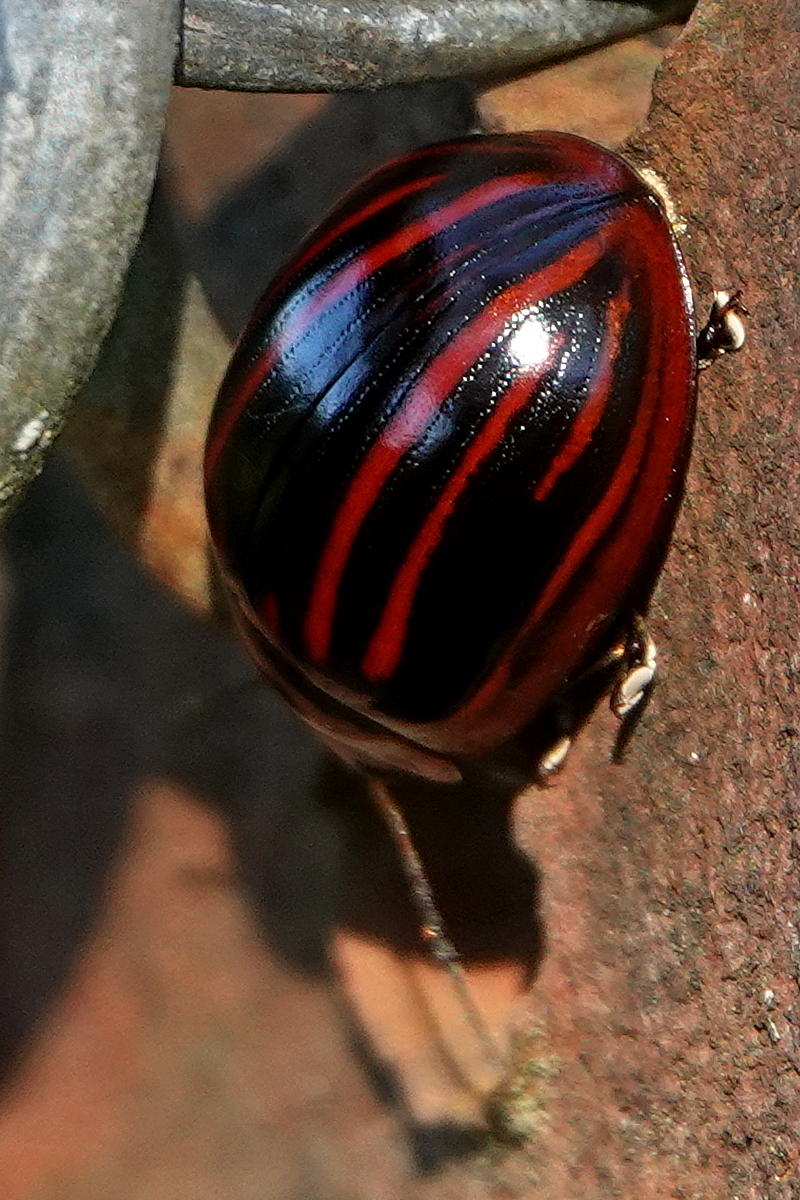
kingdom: Animalia
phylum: Arthropoda
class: Insecta
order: Coleoptera
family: Chrysomelidae
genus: Paropsisterna
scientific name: Paropsisterna
